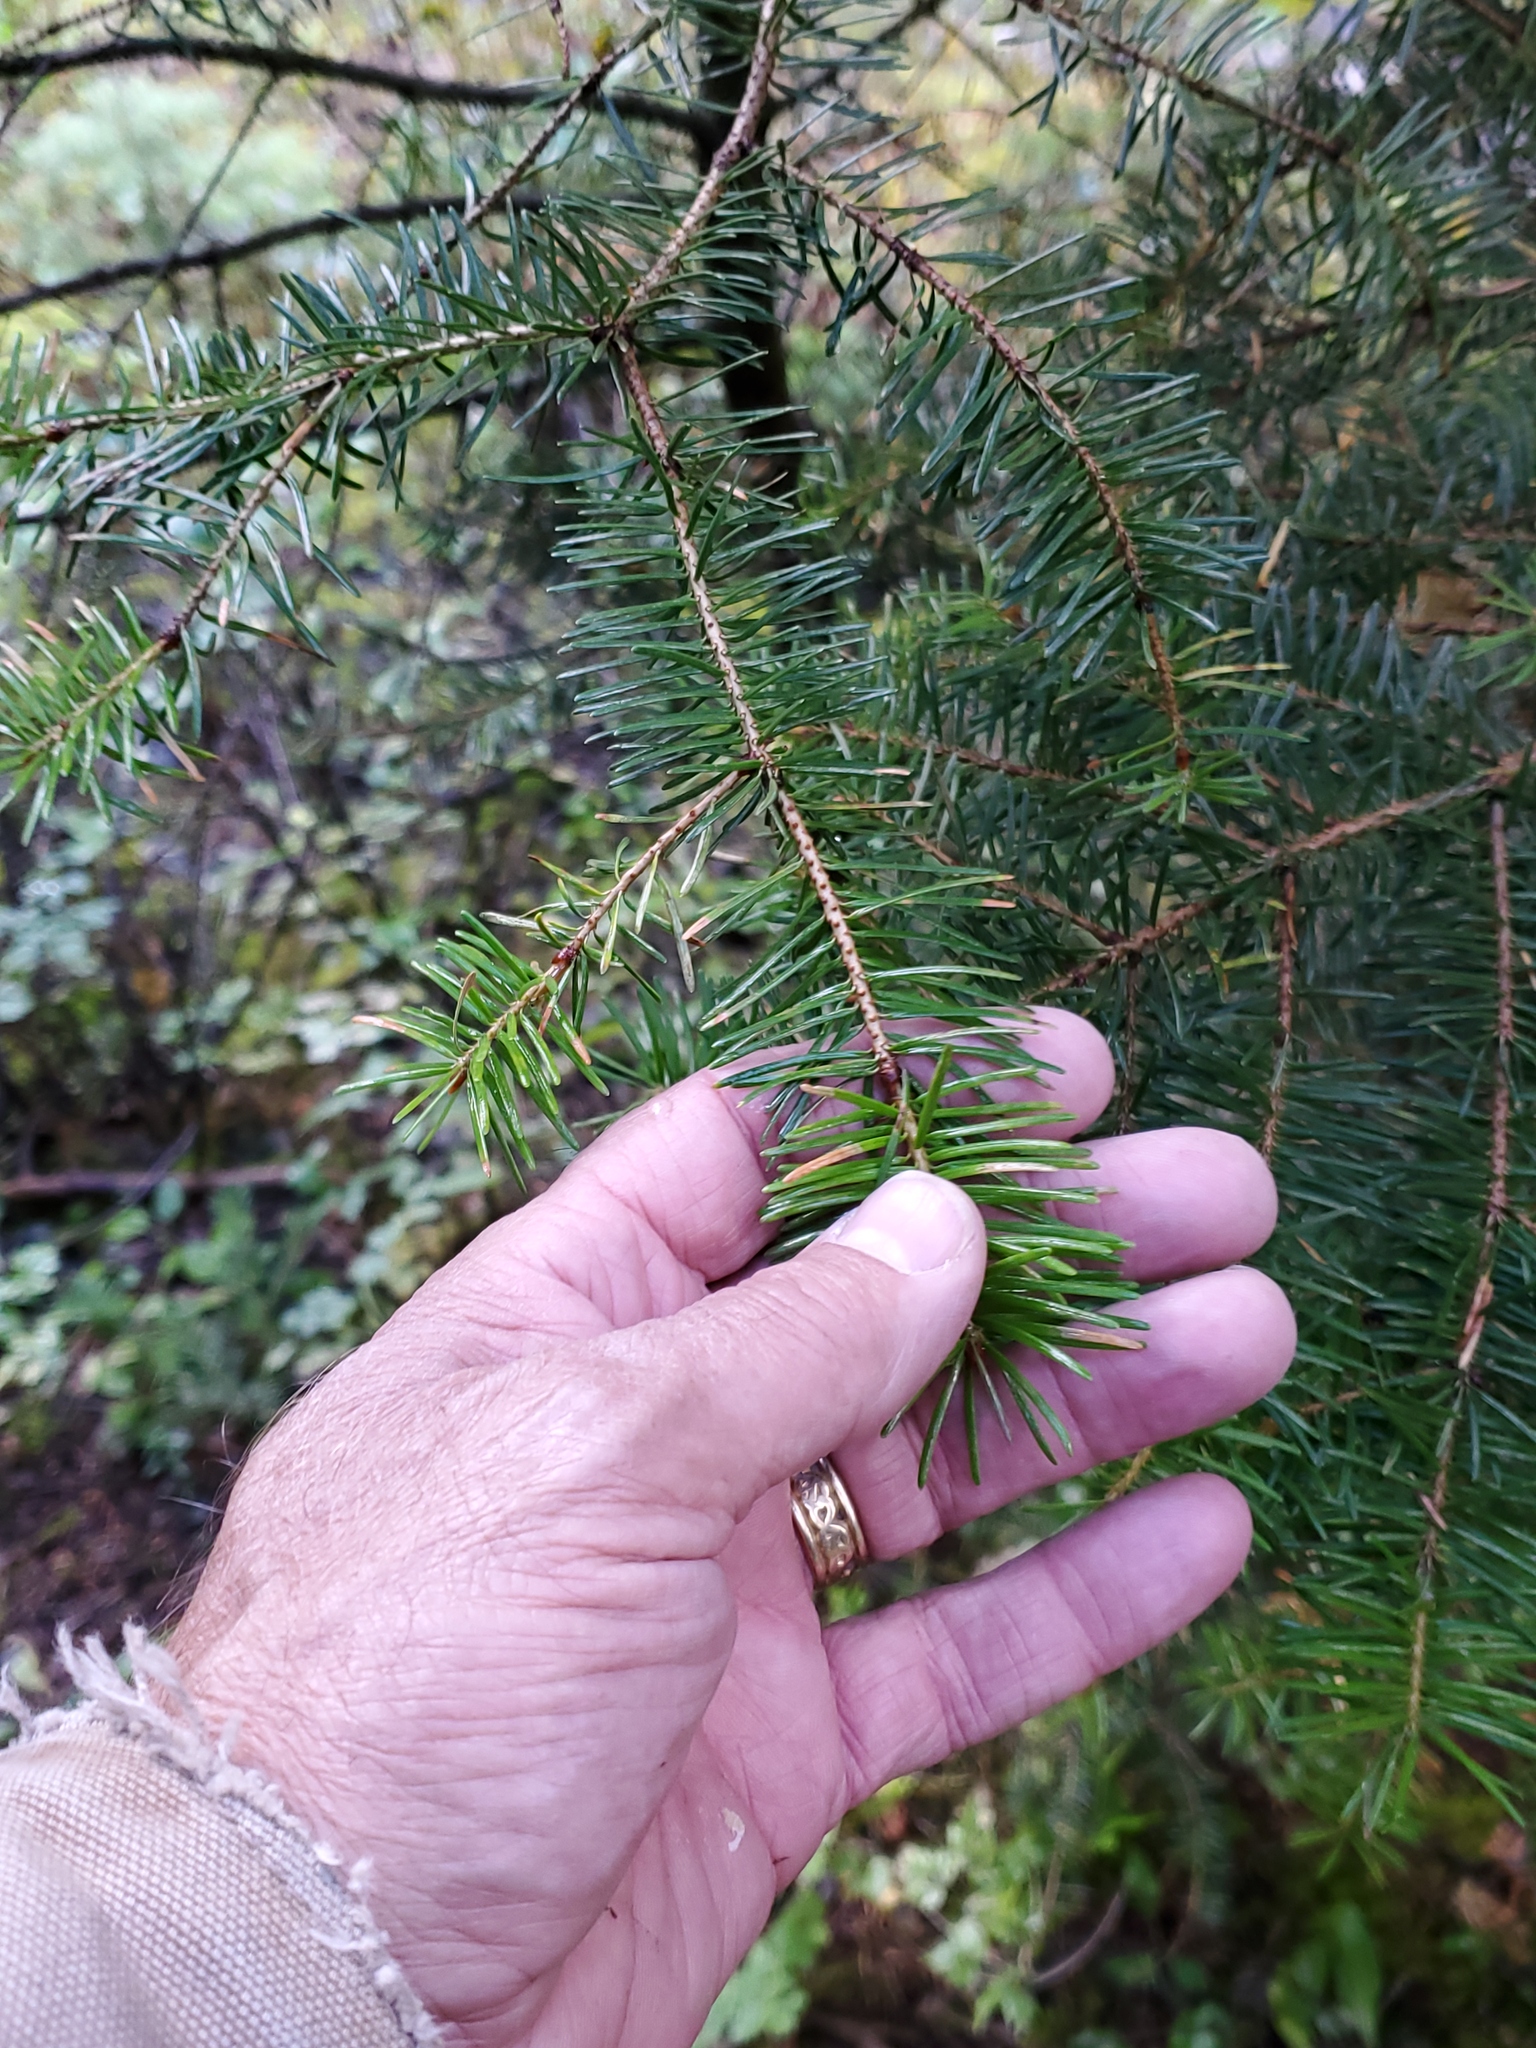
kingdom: Plantae
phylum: Tracheophyta
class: Pinopsida
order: Pinales
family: Pinaceae
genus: Pseudotsuga
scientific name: Pseudotsuga menziesii
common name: Douglas fir
